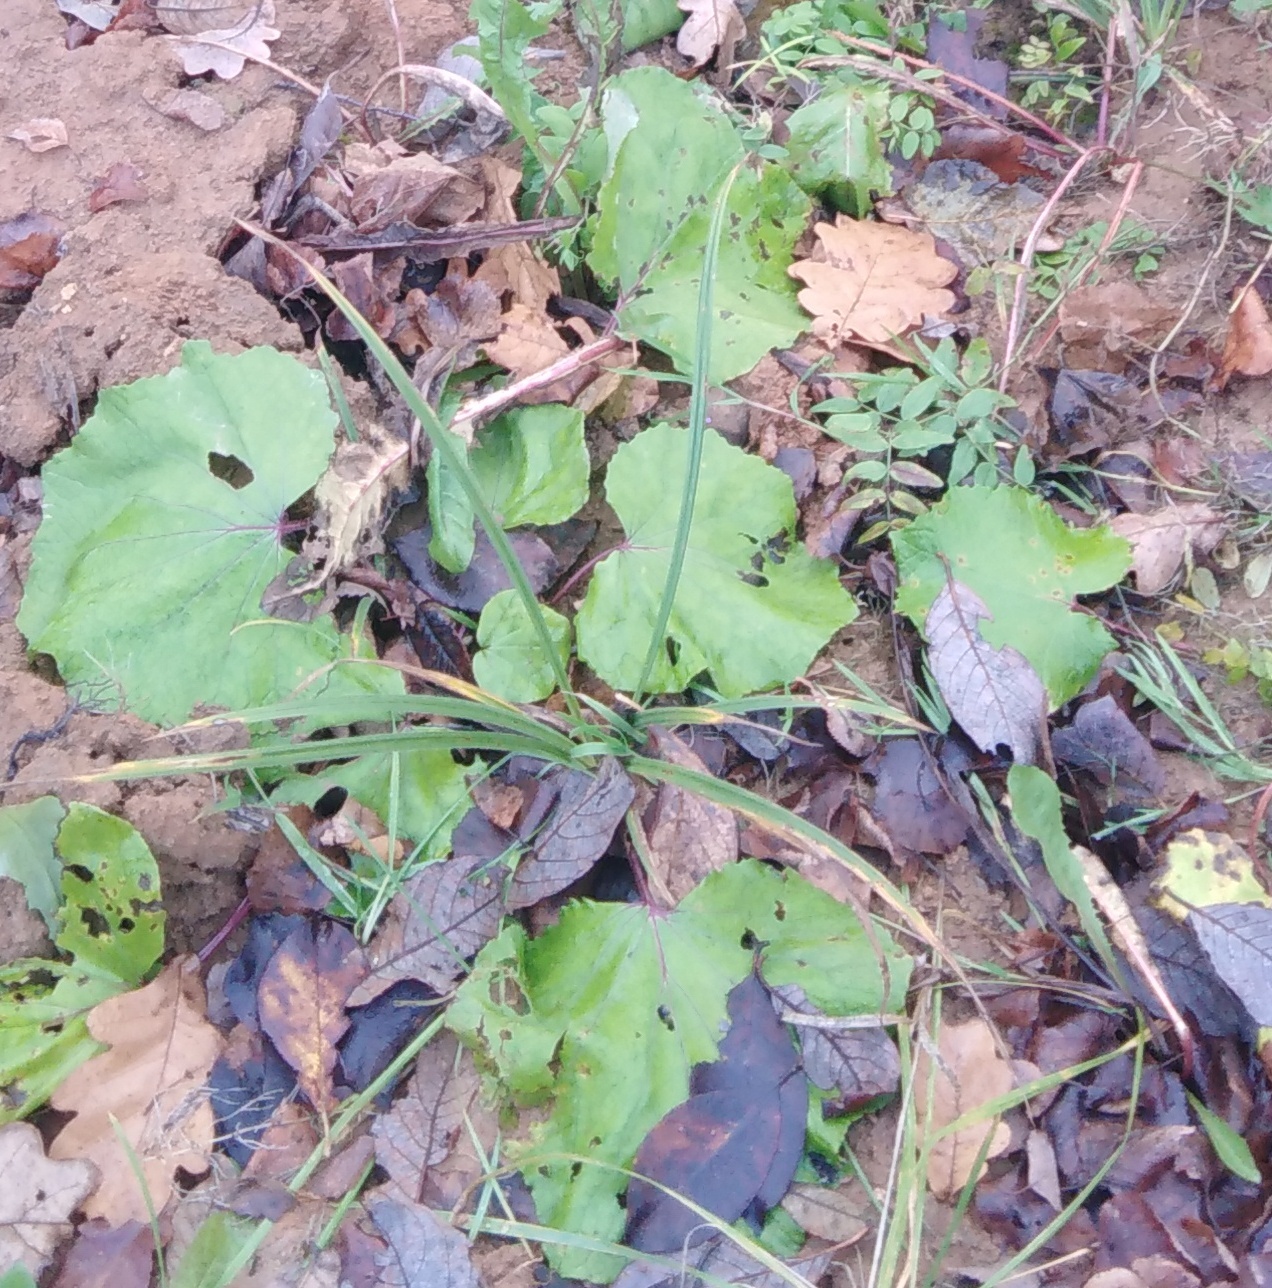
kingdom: Plantae
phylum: Tracheophyta
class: Magnoliopsida
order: Asterales
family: Asteraceae
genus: Tussilago
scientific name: Tussilago farfara
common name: Coltsfoot
